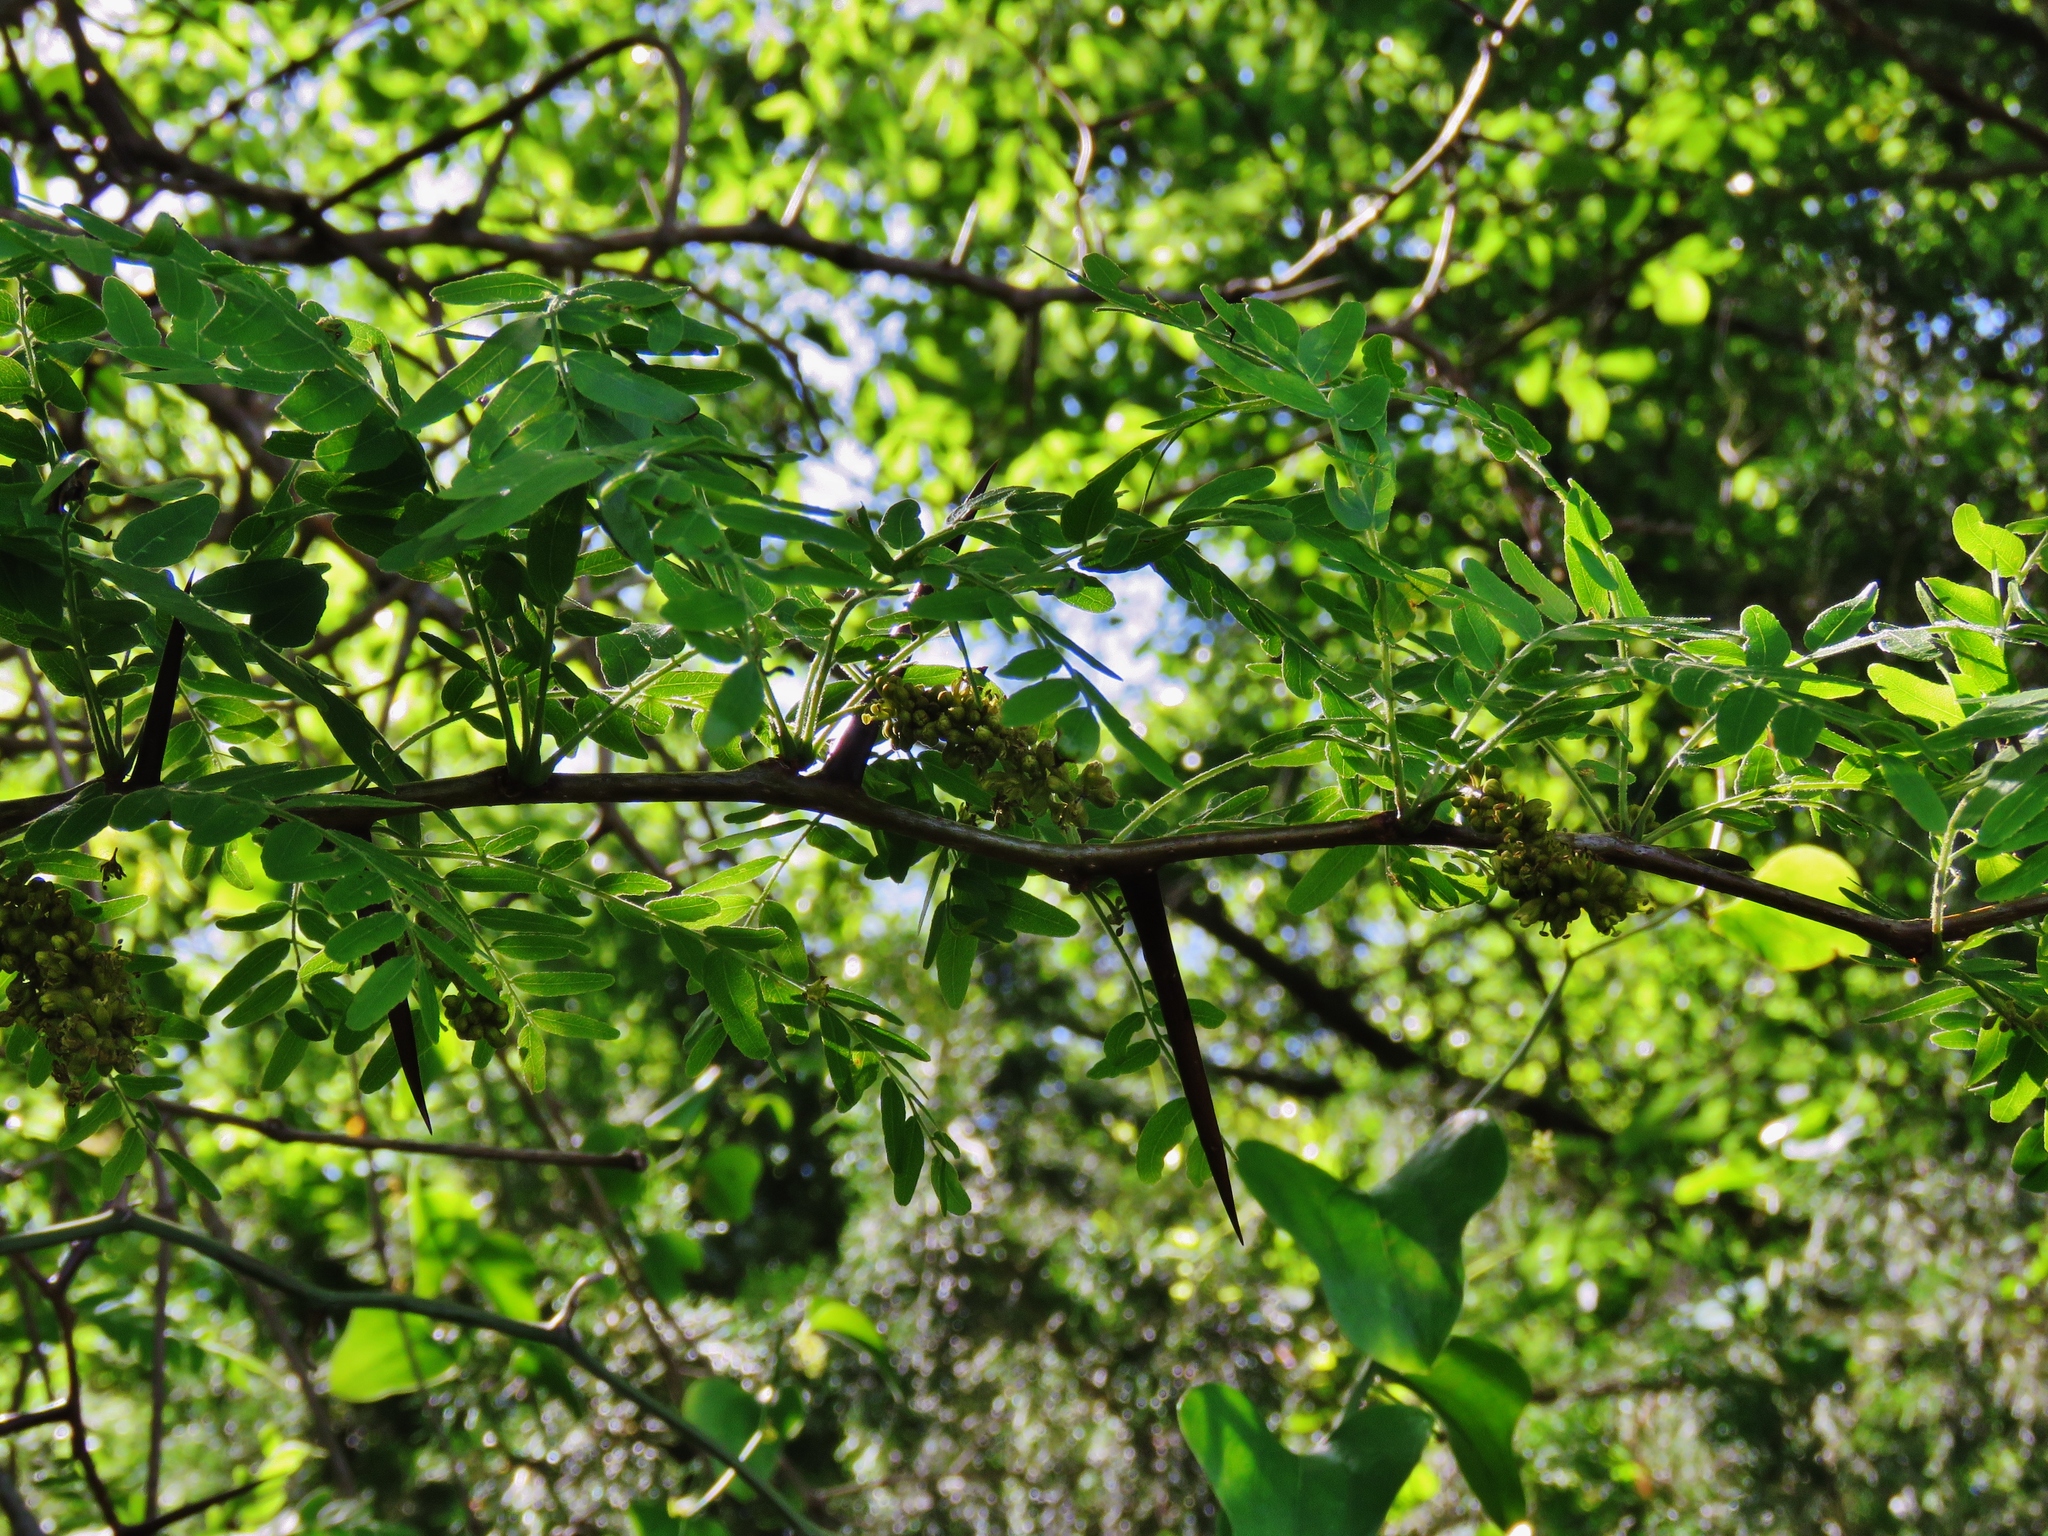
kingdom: Plantae
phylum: Tracheophyta
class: Magnoliopsida
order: Fabales
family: Fabaceae
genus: Gleditsia
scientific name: Gleditsia triacanthos
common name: Common honeylocust
